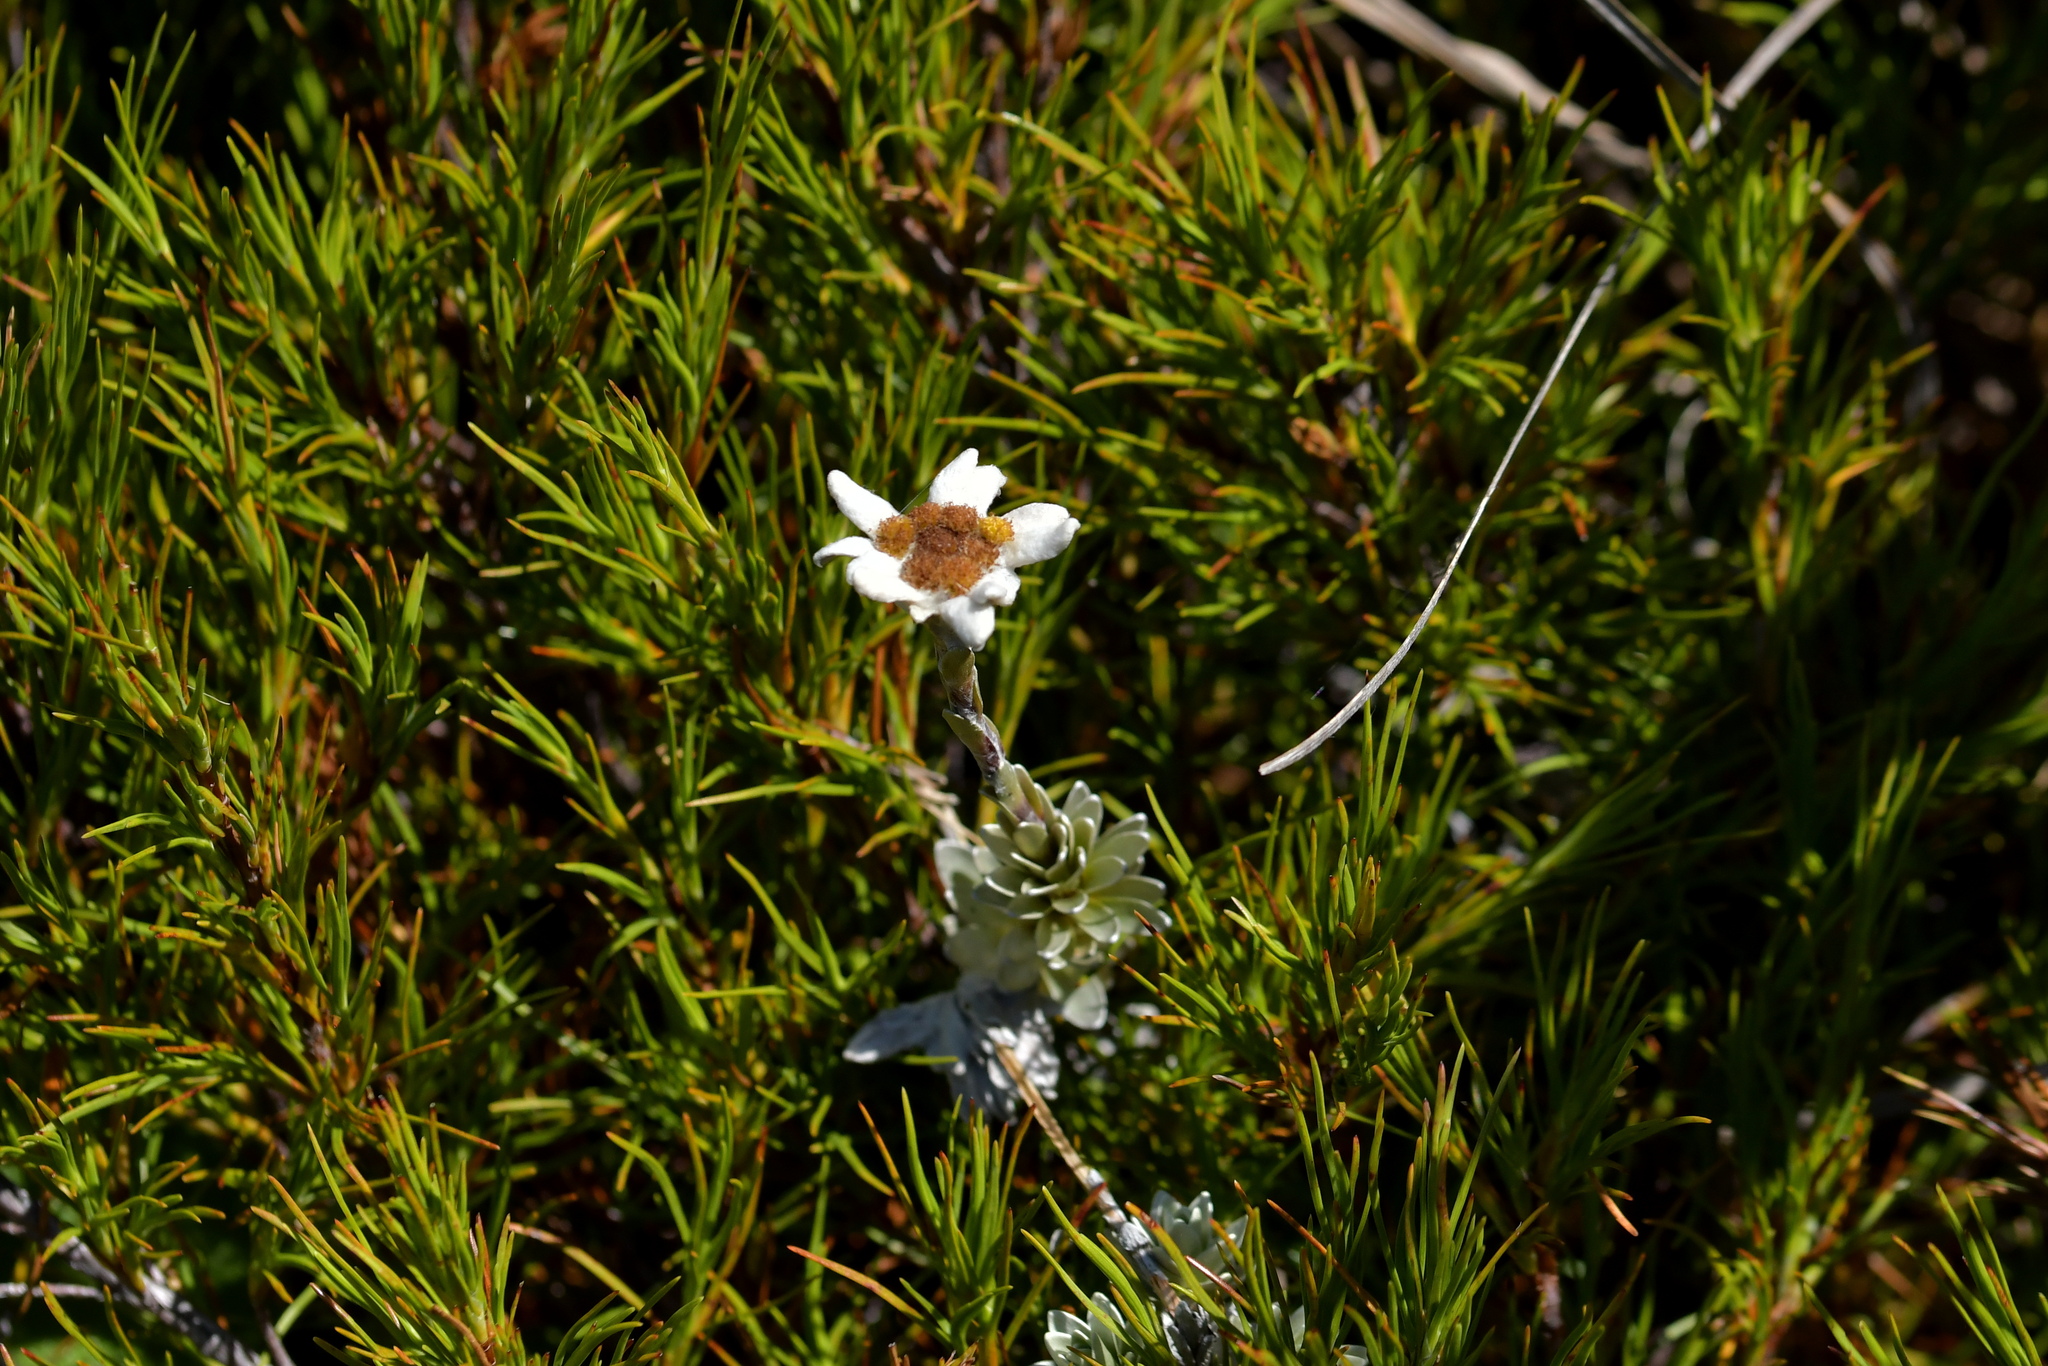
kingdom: Plantae
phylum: Tracheophyta
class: Magnoliopsida
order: Asterales
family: Asteraceae
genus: Leucogenes
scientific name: Leucogenes leontopodium
